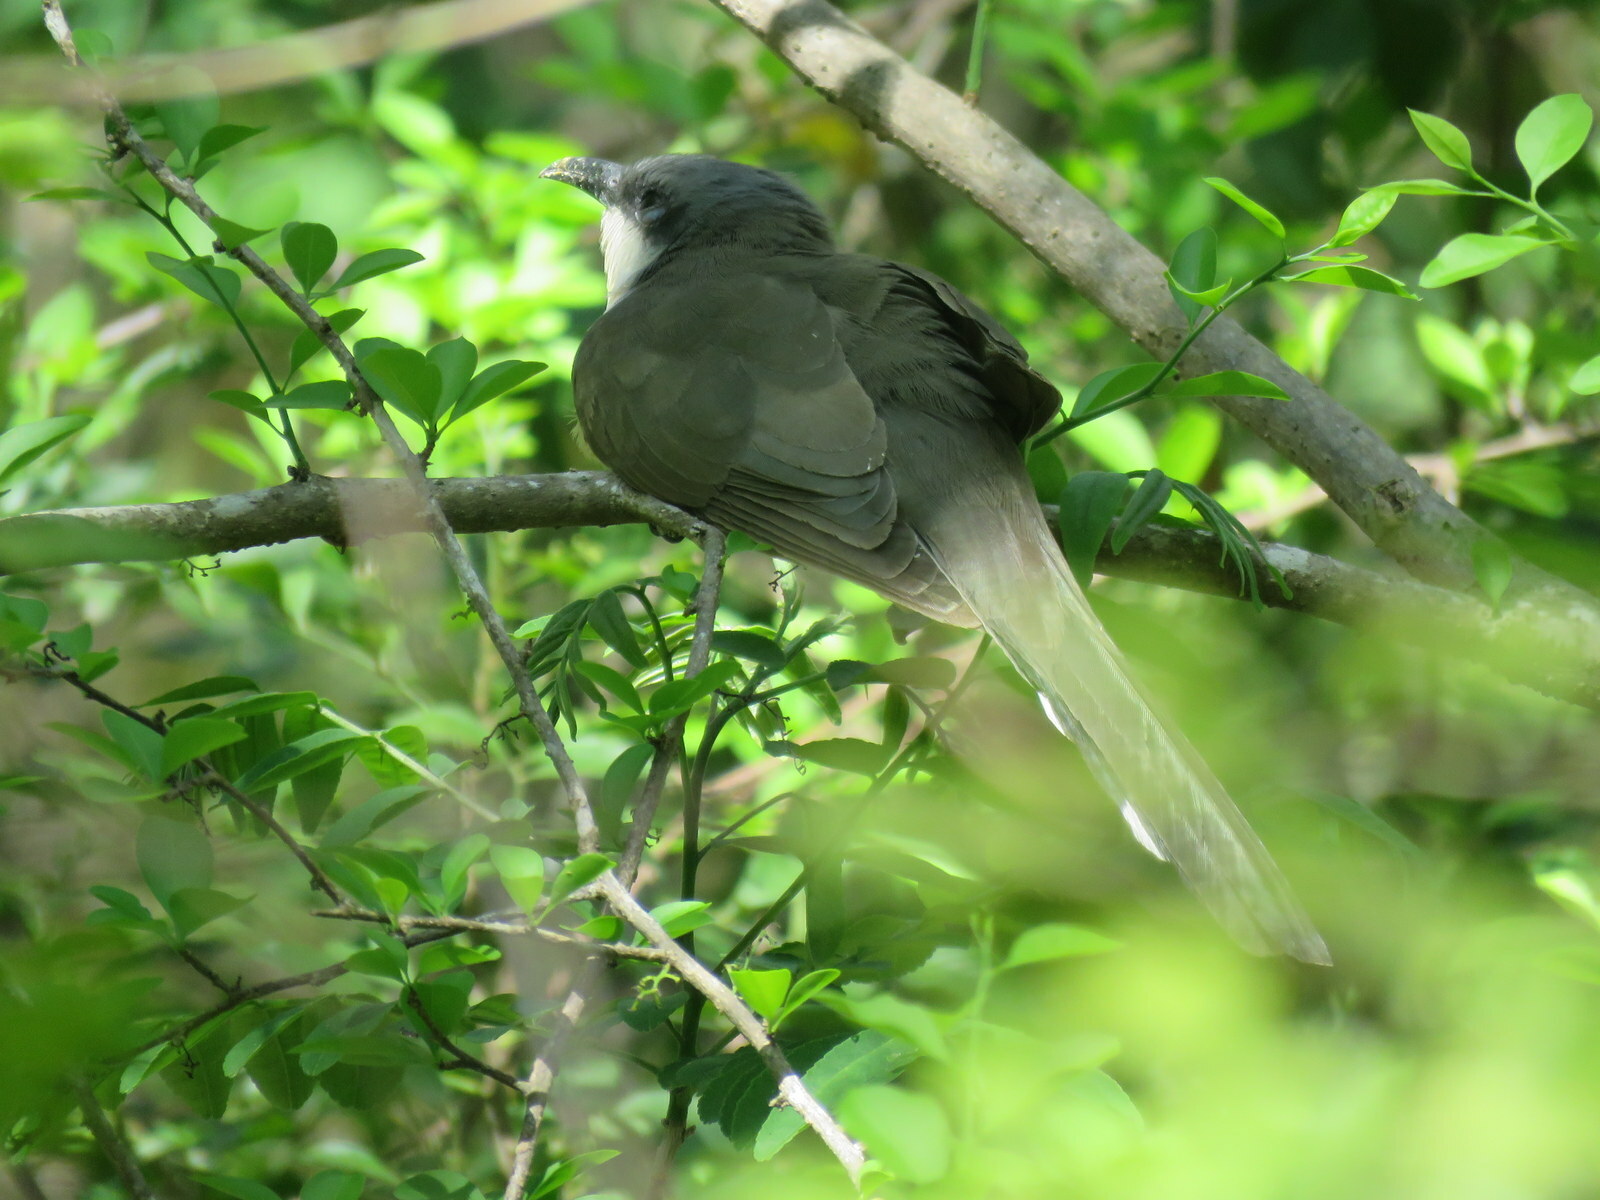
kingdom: Animalia
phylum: Chordata
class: Aves
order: Cuculiformes
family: Cuculidae
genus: Coccyzus
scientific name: Coccyzus melacoryphus
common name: Dark-billed cuckoo
